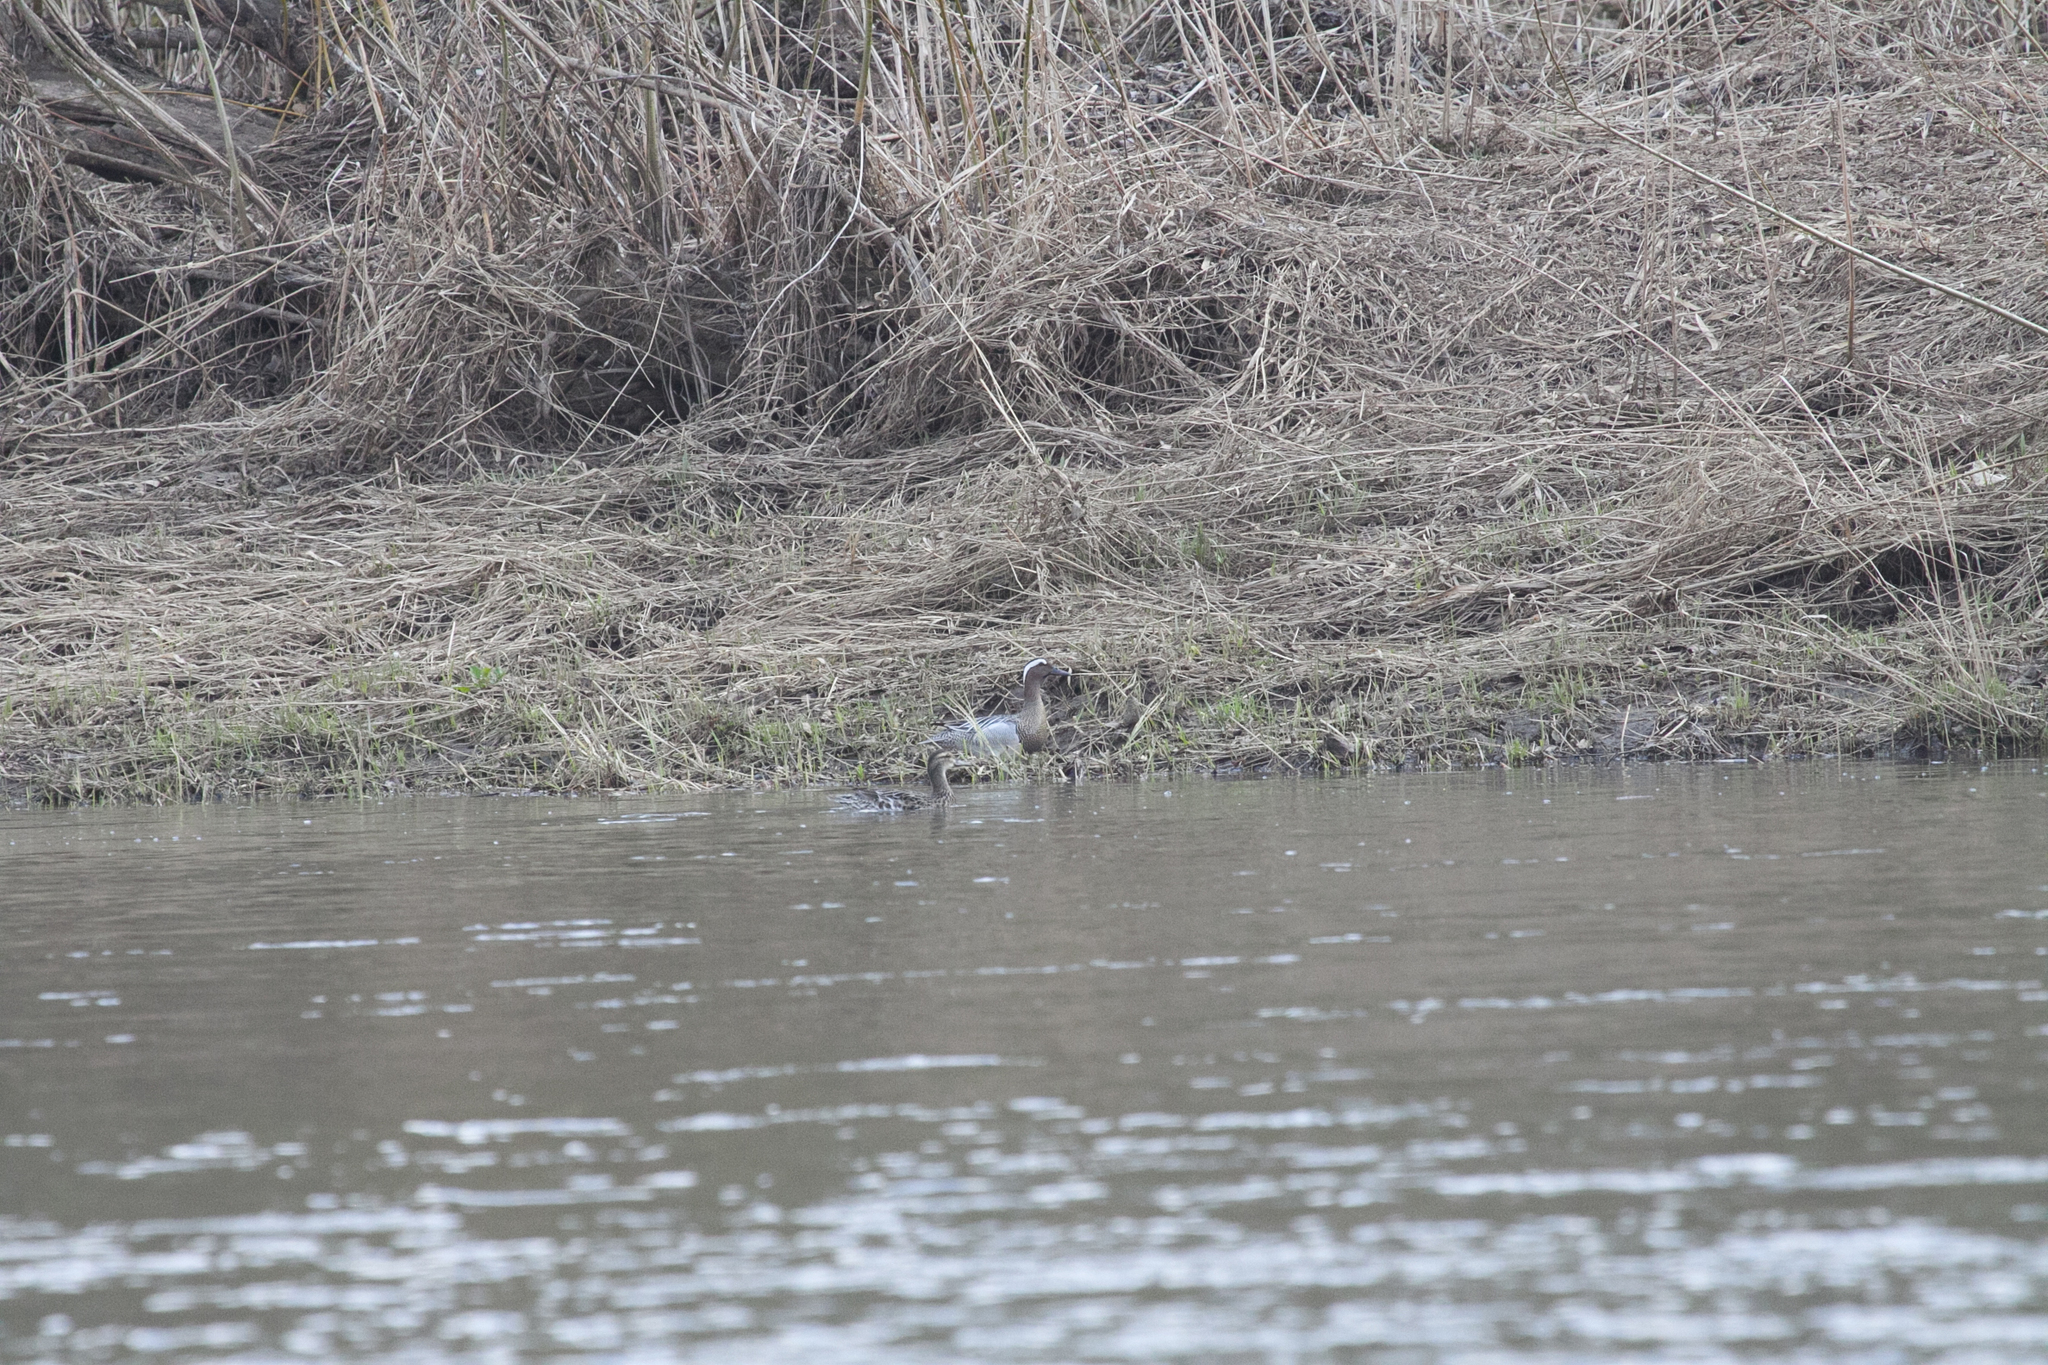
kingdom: Animalia
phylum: Chordata
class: Aves
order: Anseriformes
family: Anatidae
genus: Spatula
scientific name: Spatula querquedula
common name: Garganey
